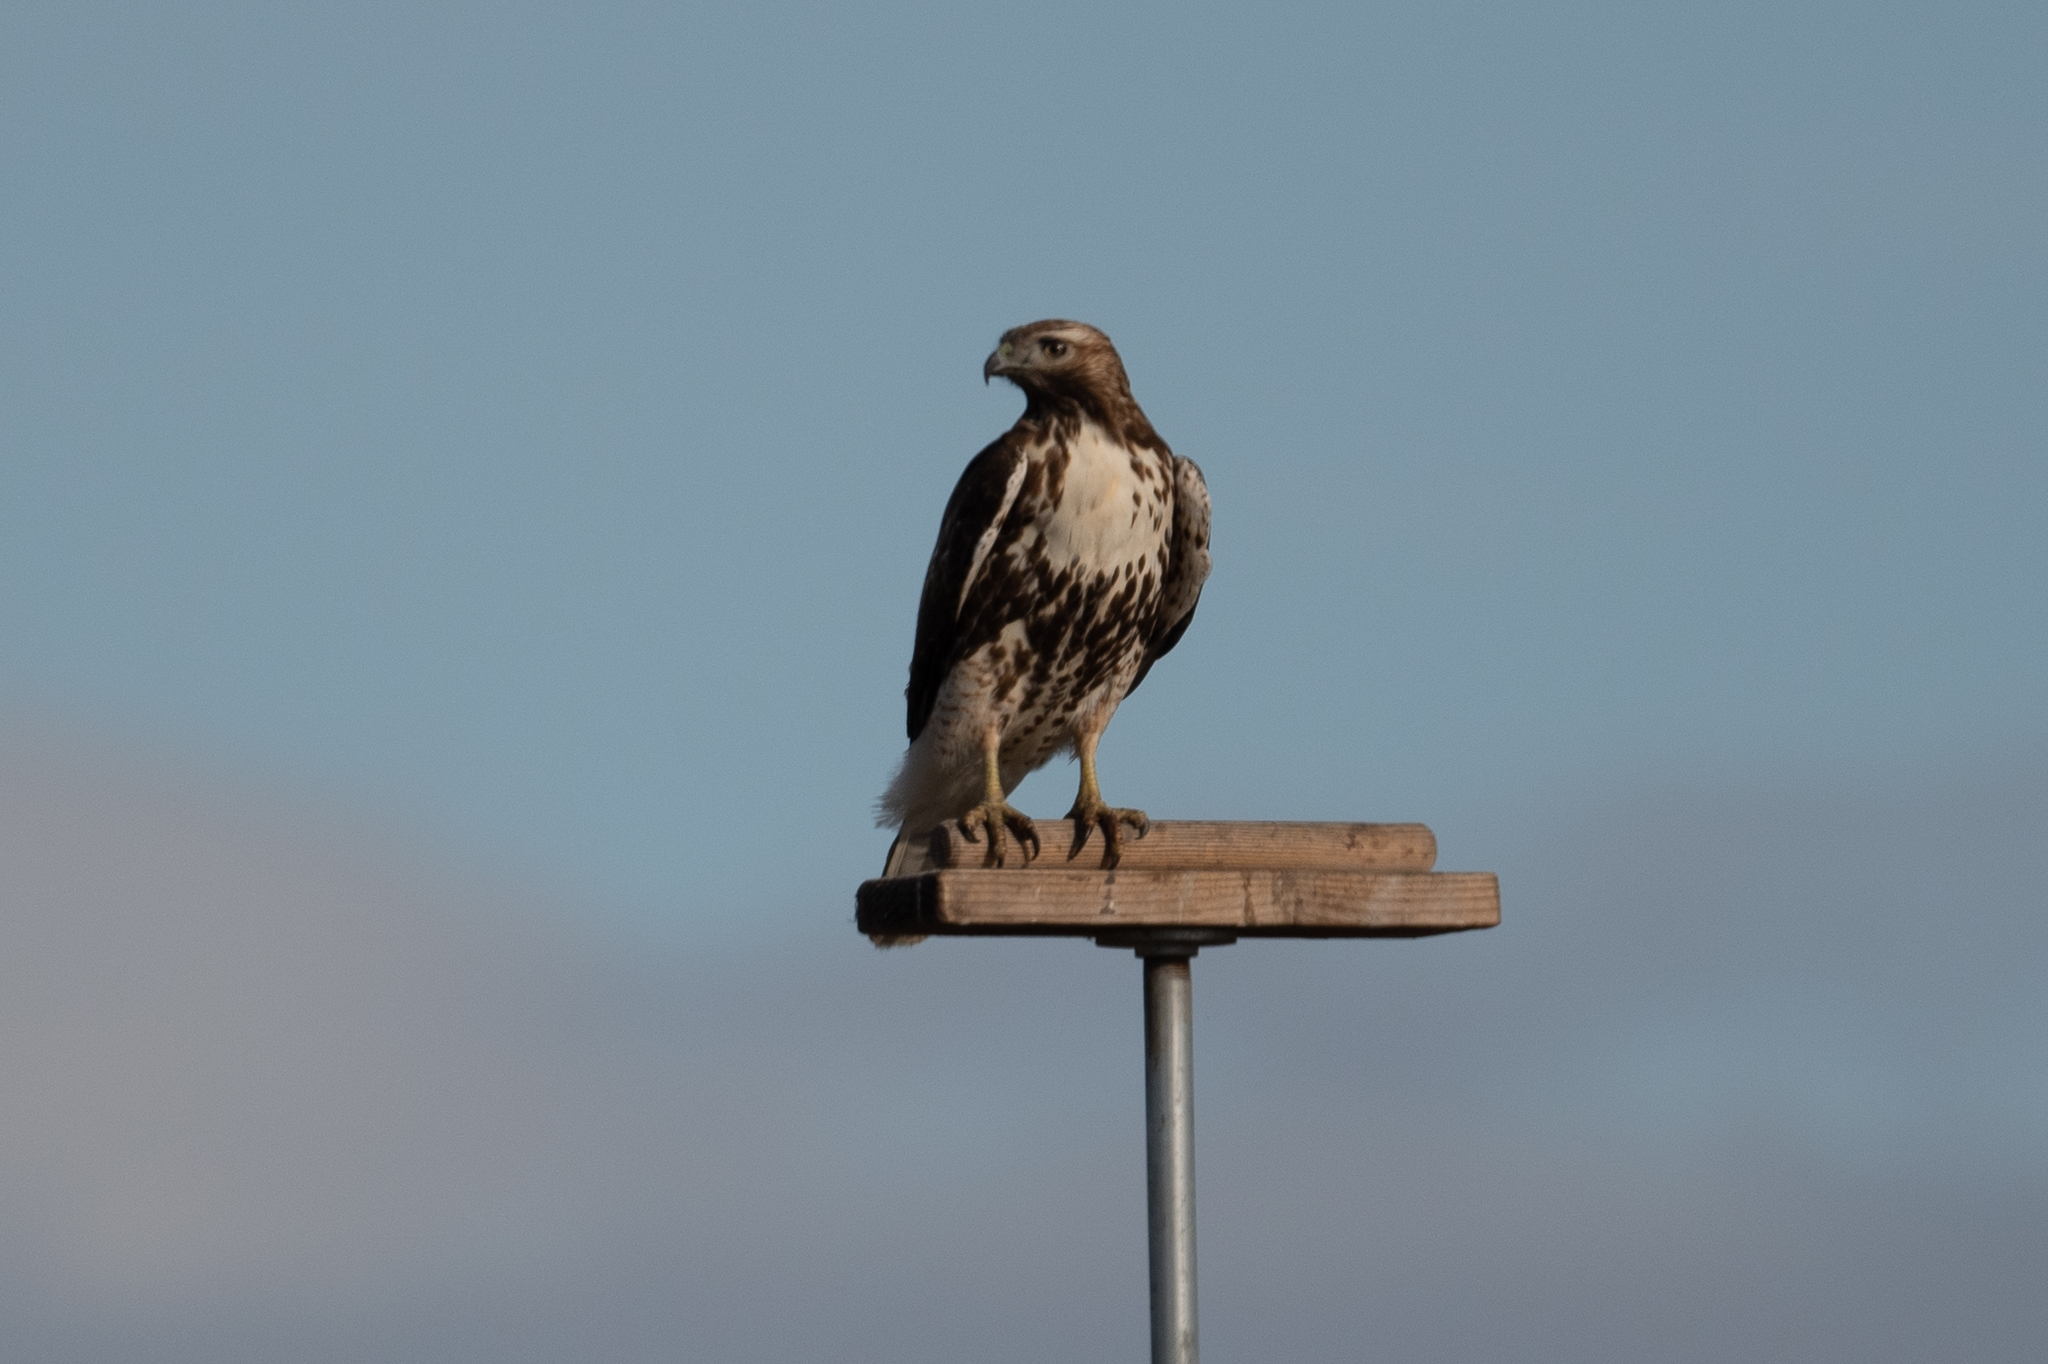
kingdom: Animalia
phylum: Chordata
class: Aves
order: Accipitriformes
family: Accipitridae
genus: Buteo
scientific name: Buteo jamaicensis
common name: Red-tailed hawk
